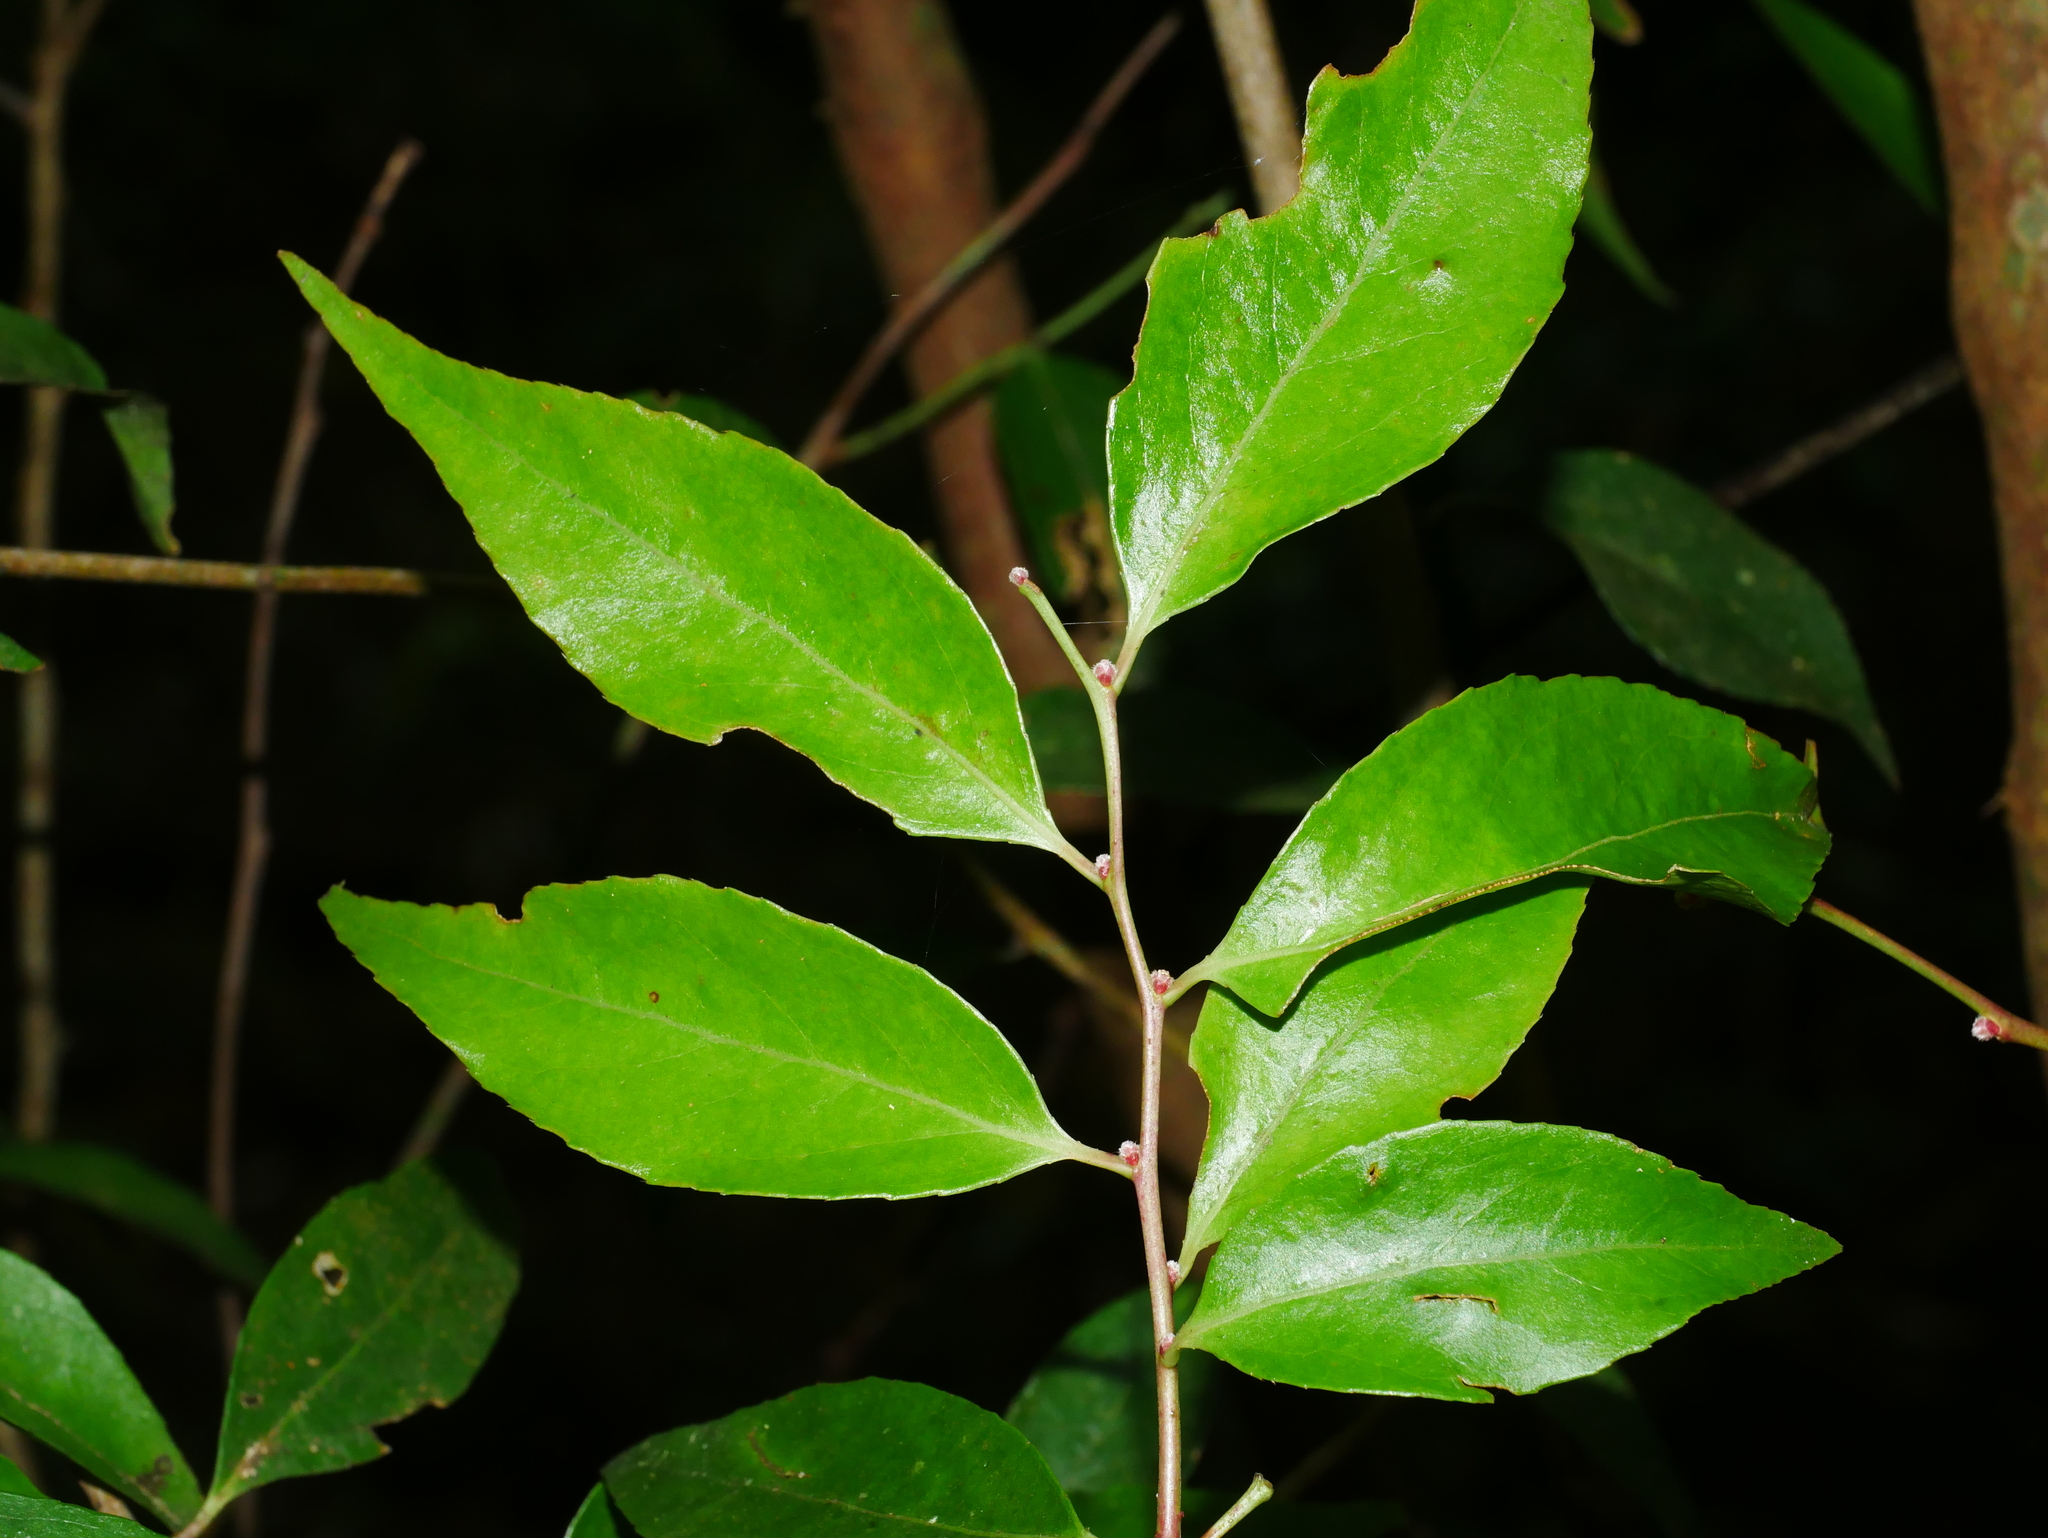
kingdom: Plantae
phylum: Tracheophyta
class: Magnoliopsida
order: Ericales
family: Ericaceae
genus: Vaccinium
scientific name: Vaccinium bracteatum
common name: Sea bilberry
